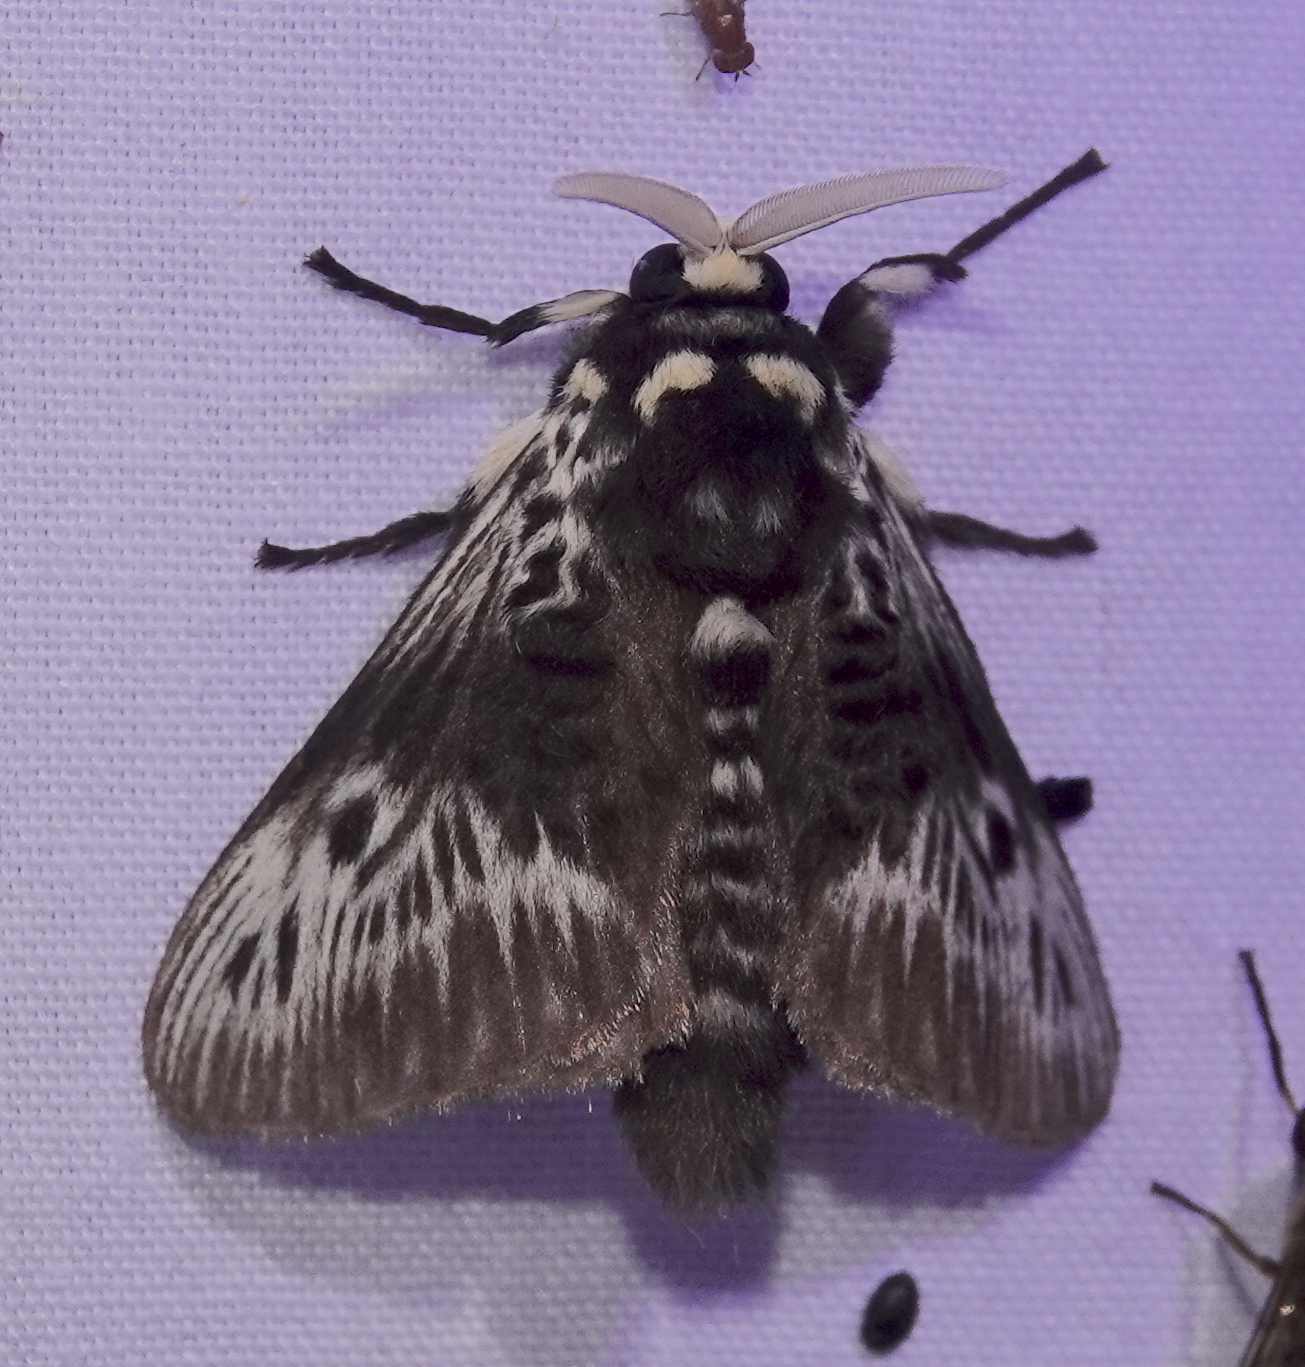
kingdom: Animalia
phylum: Arthropoda
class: Insecta
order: Lepidoptera
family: Megalopygidae
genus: Megalopyge
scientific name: Megalopyge albicollis
